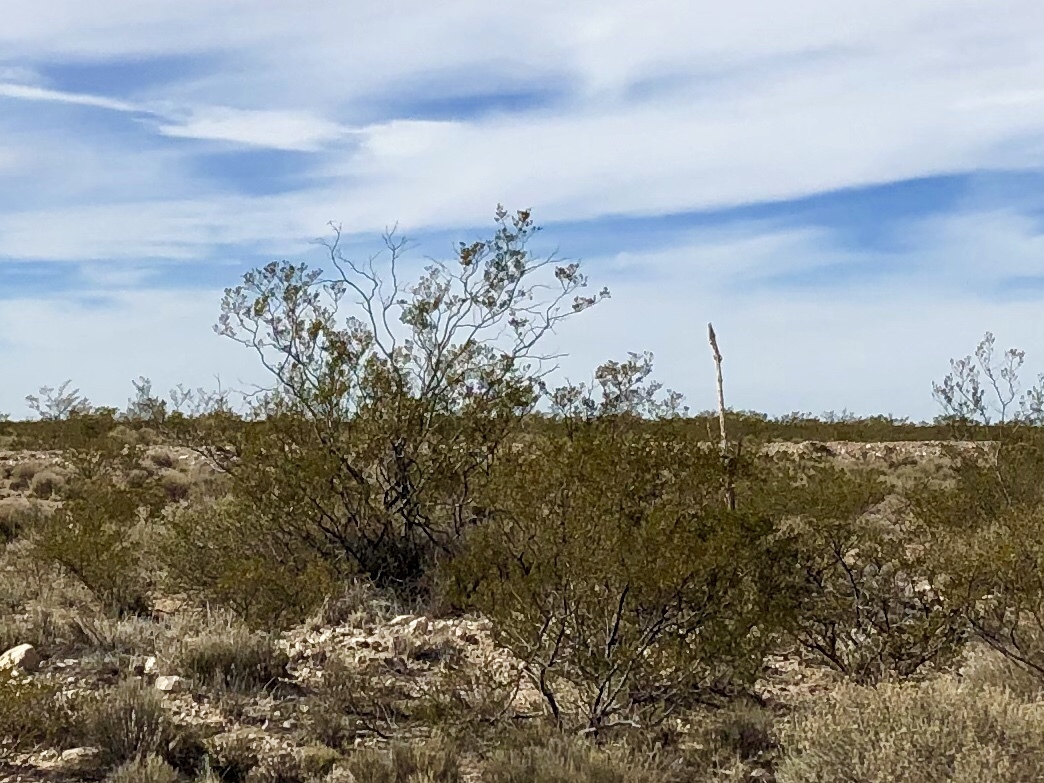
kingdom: Plantae
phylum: Tracheophyta
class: Magnoliopsida
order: Zygophyllales
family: Zygophyllaceae
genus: Larrea
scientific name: Larrea tridentata
